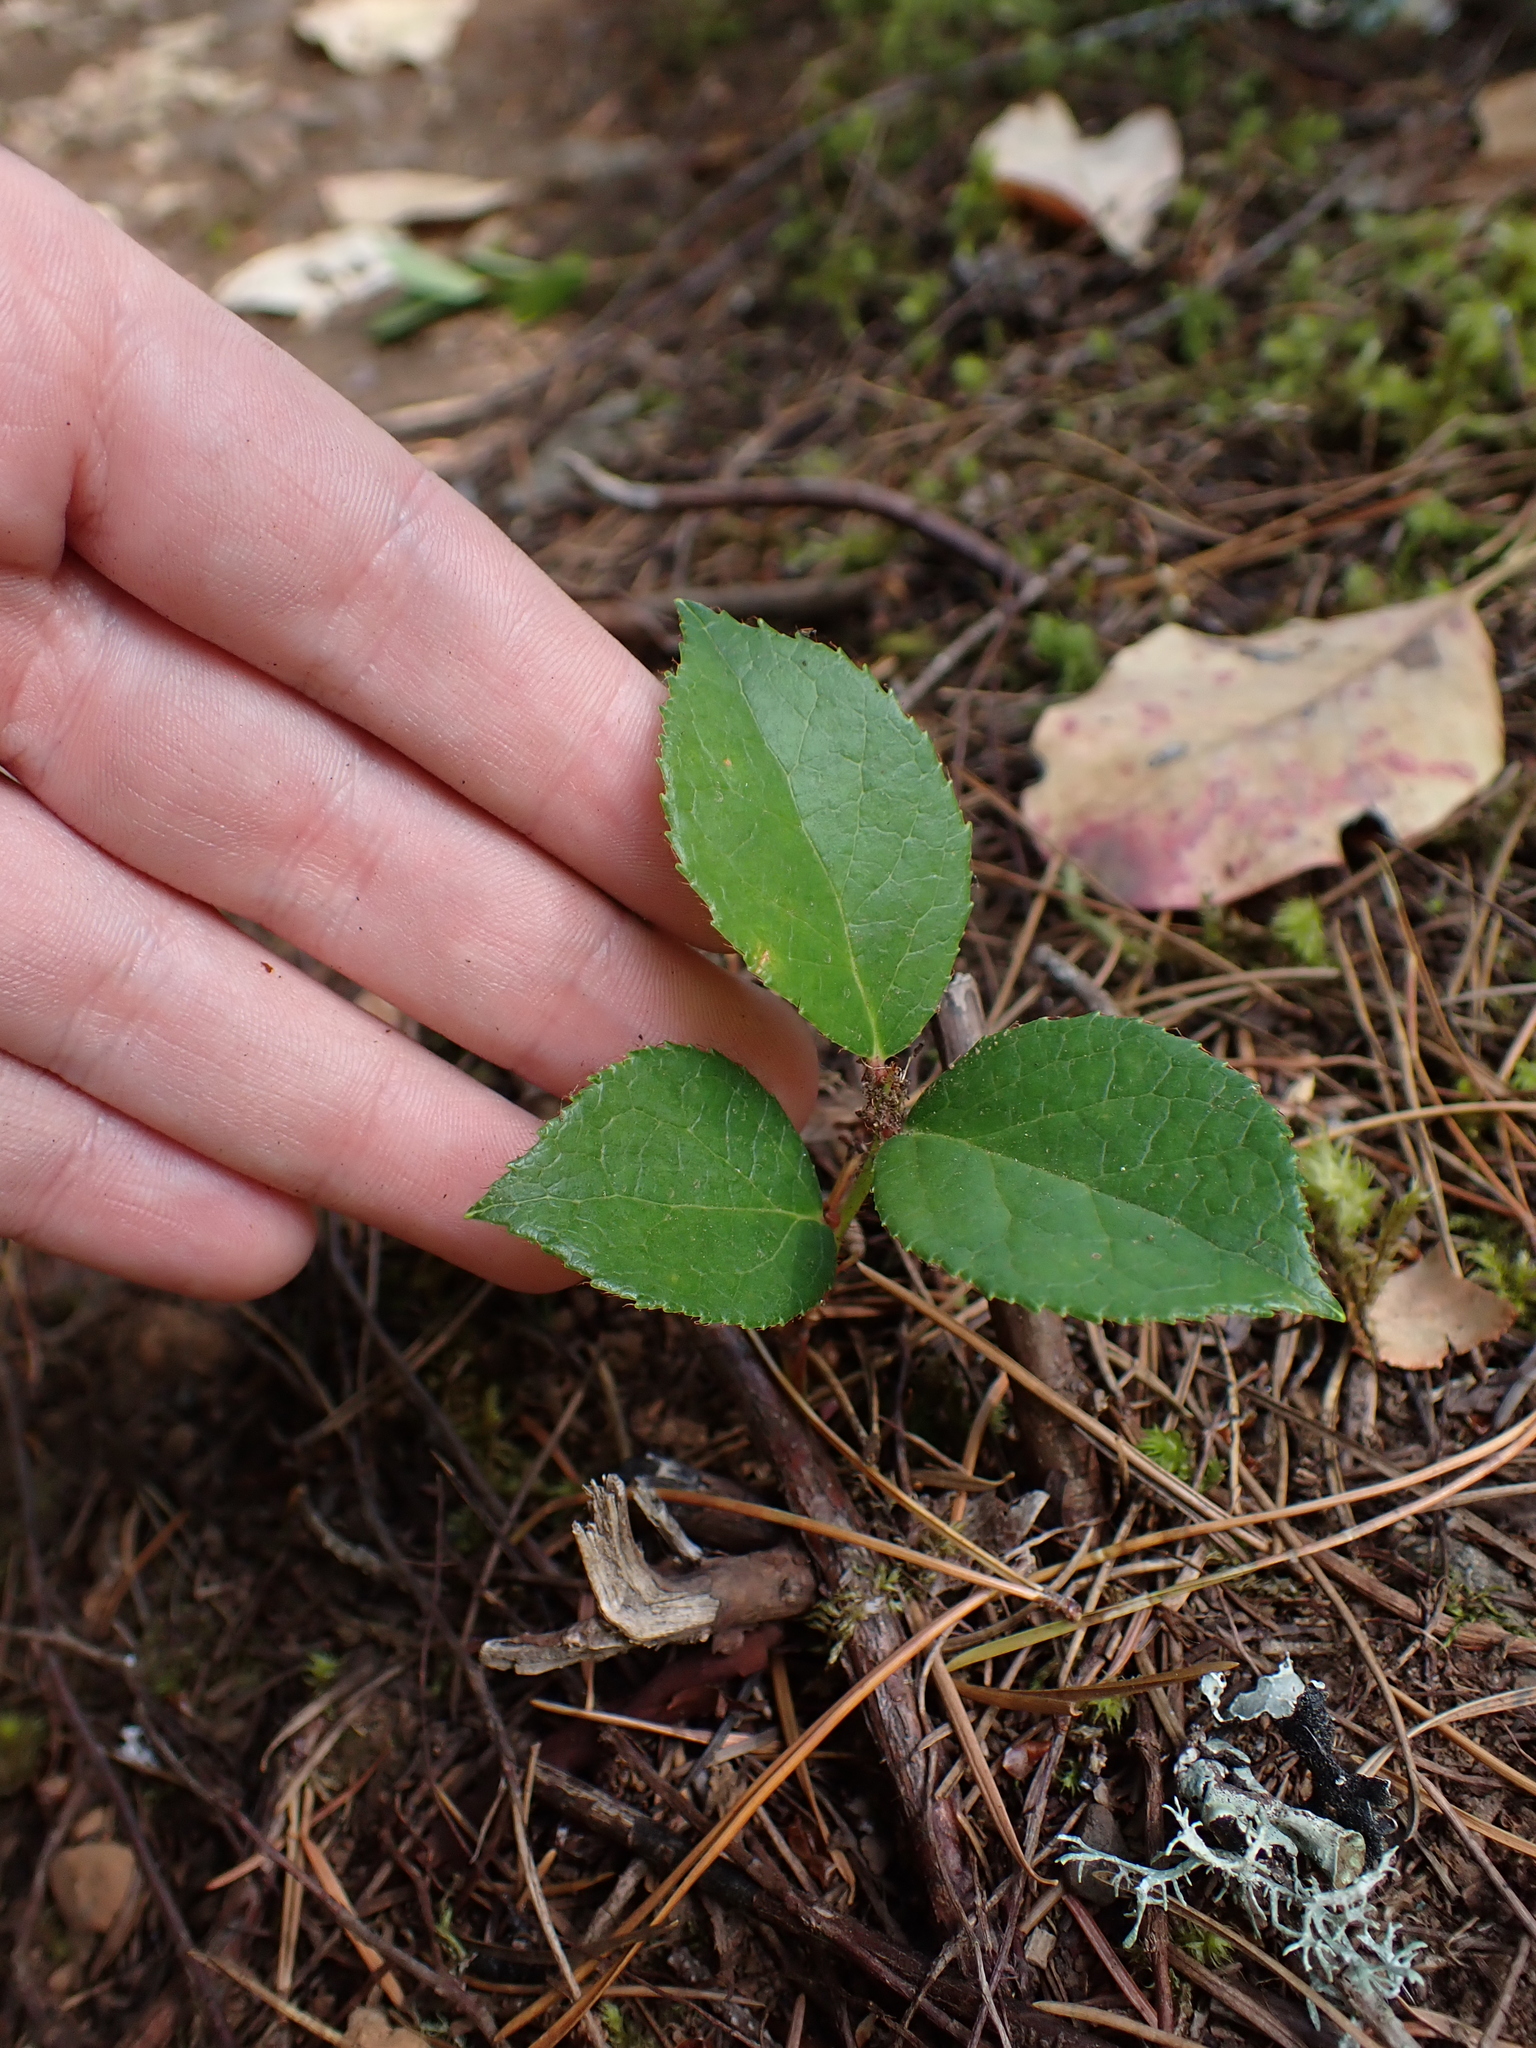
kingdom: Plantae
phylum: Tracheophyta
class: Magnoliopsida
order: Ericales
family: Ericaceae
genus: Gaultheria
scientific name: Gaultheria shallon
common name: Shallon
